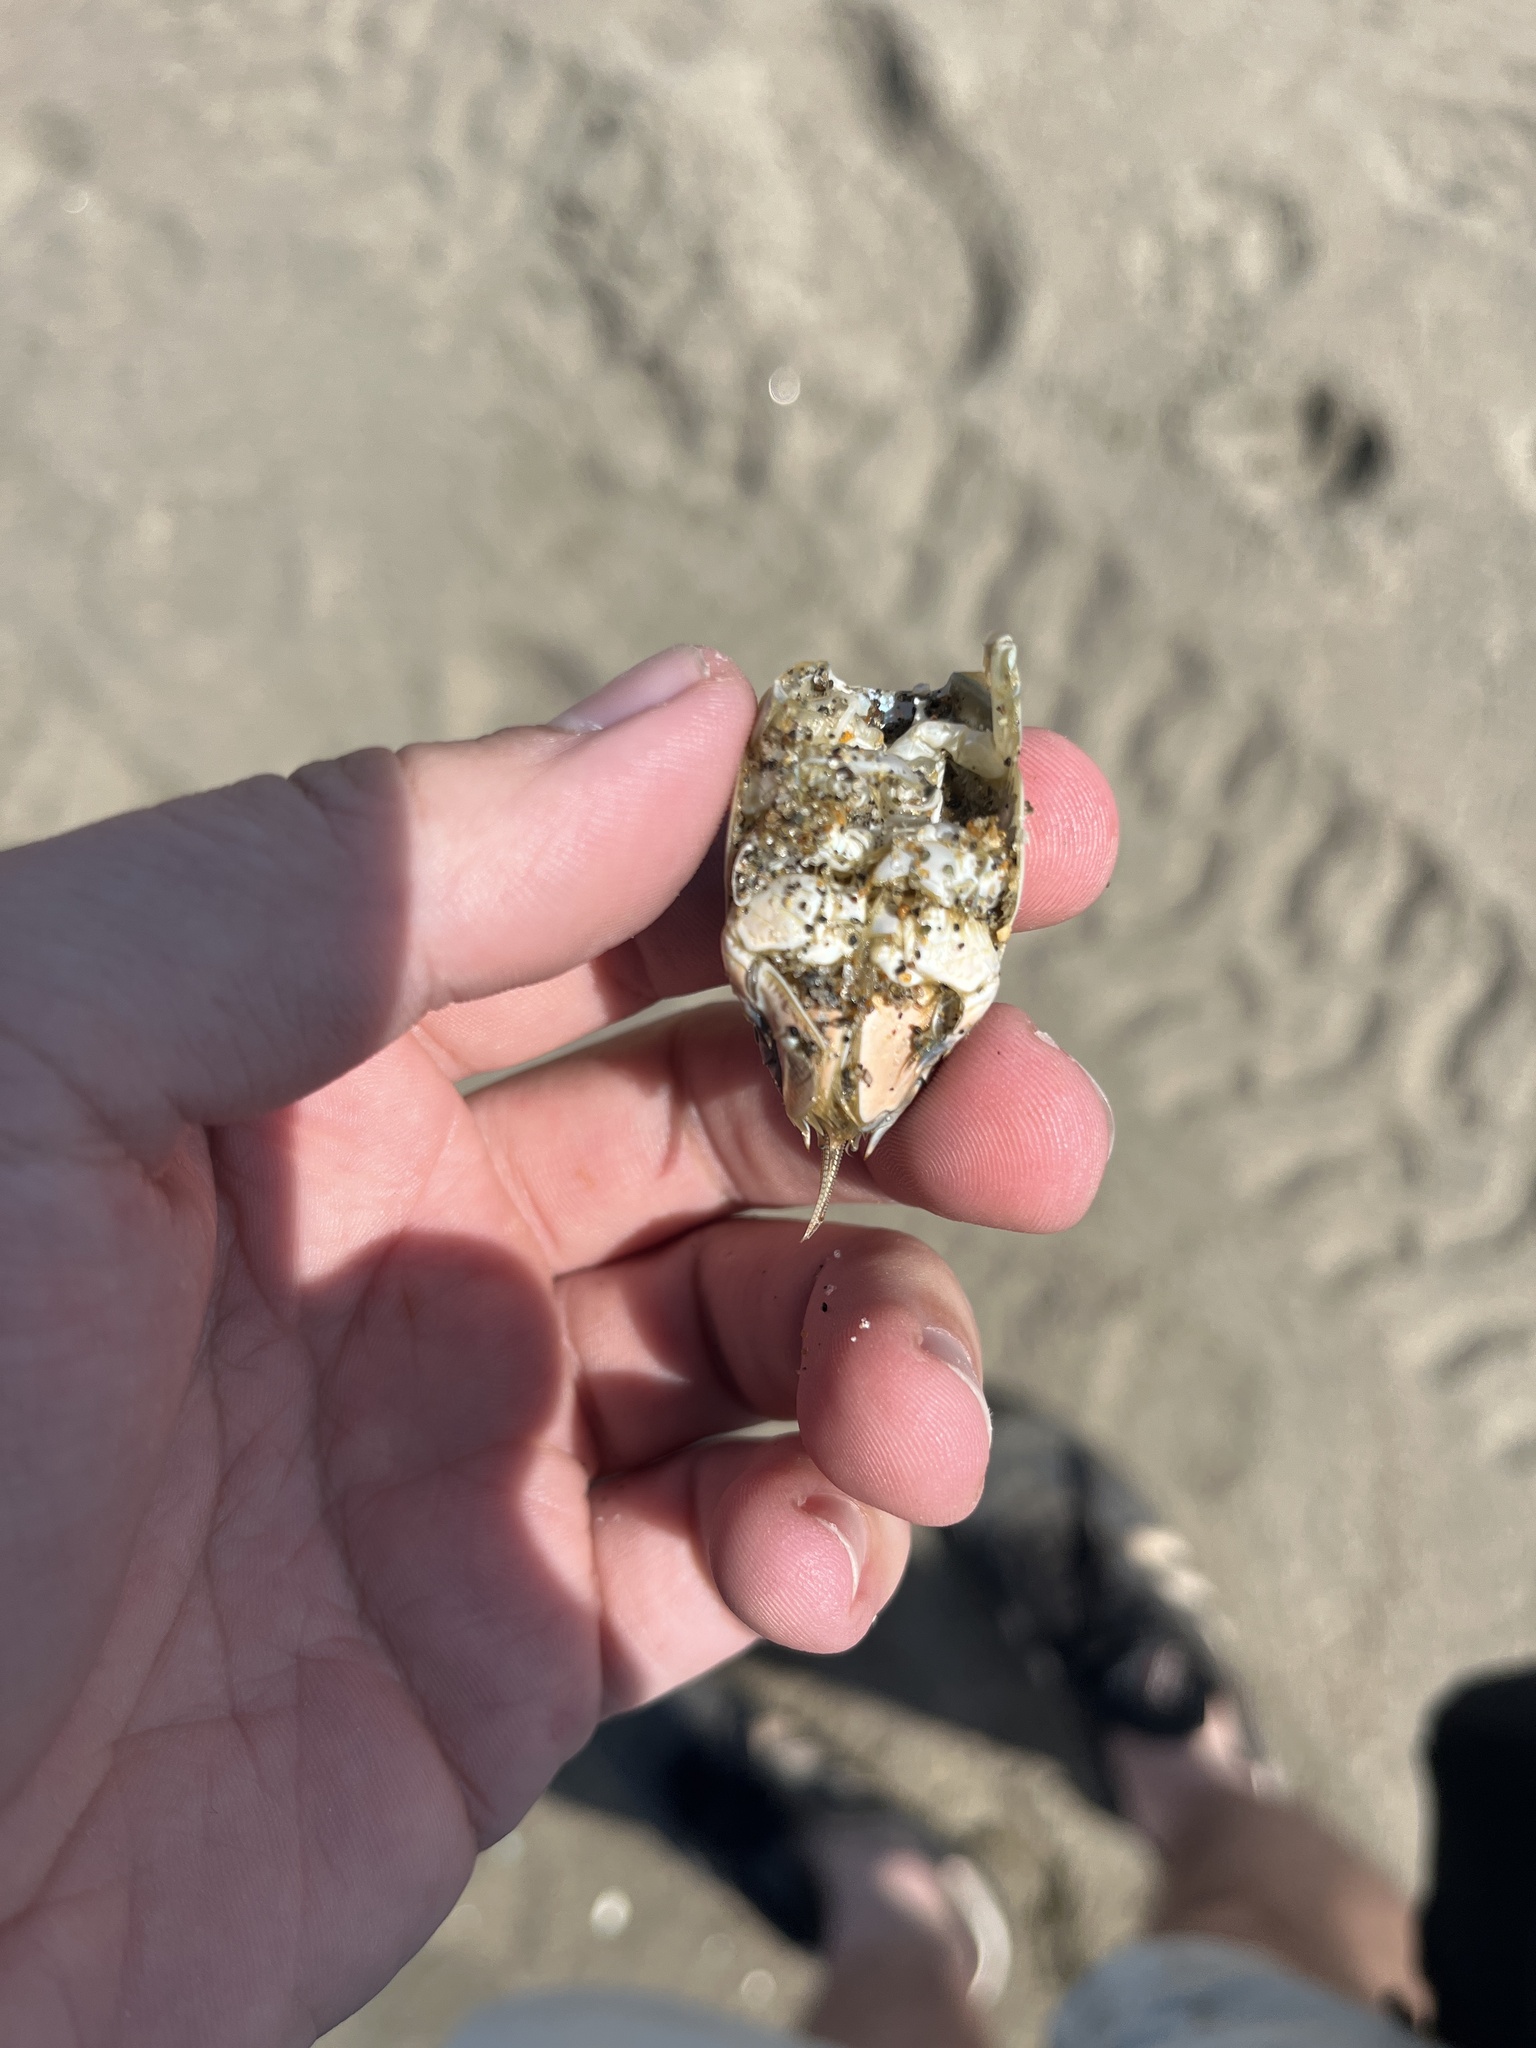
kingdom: Animalia
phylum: Arthropoda
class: Malacostraca
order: Decapoda
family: Hippidae
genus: Emerita
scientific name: Emerita analoga
